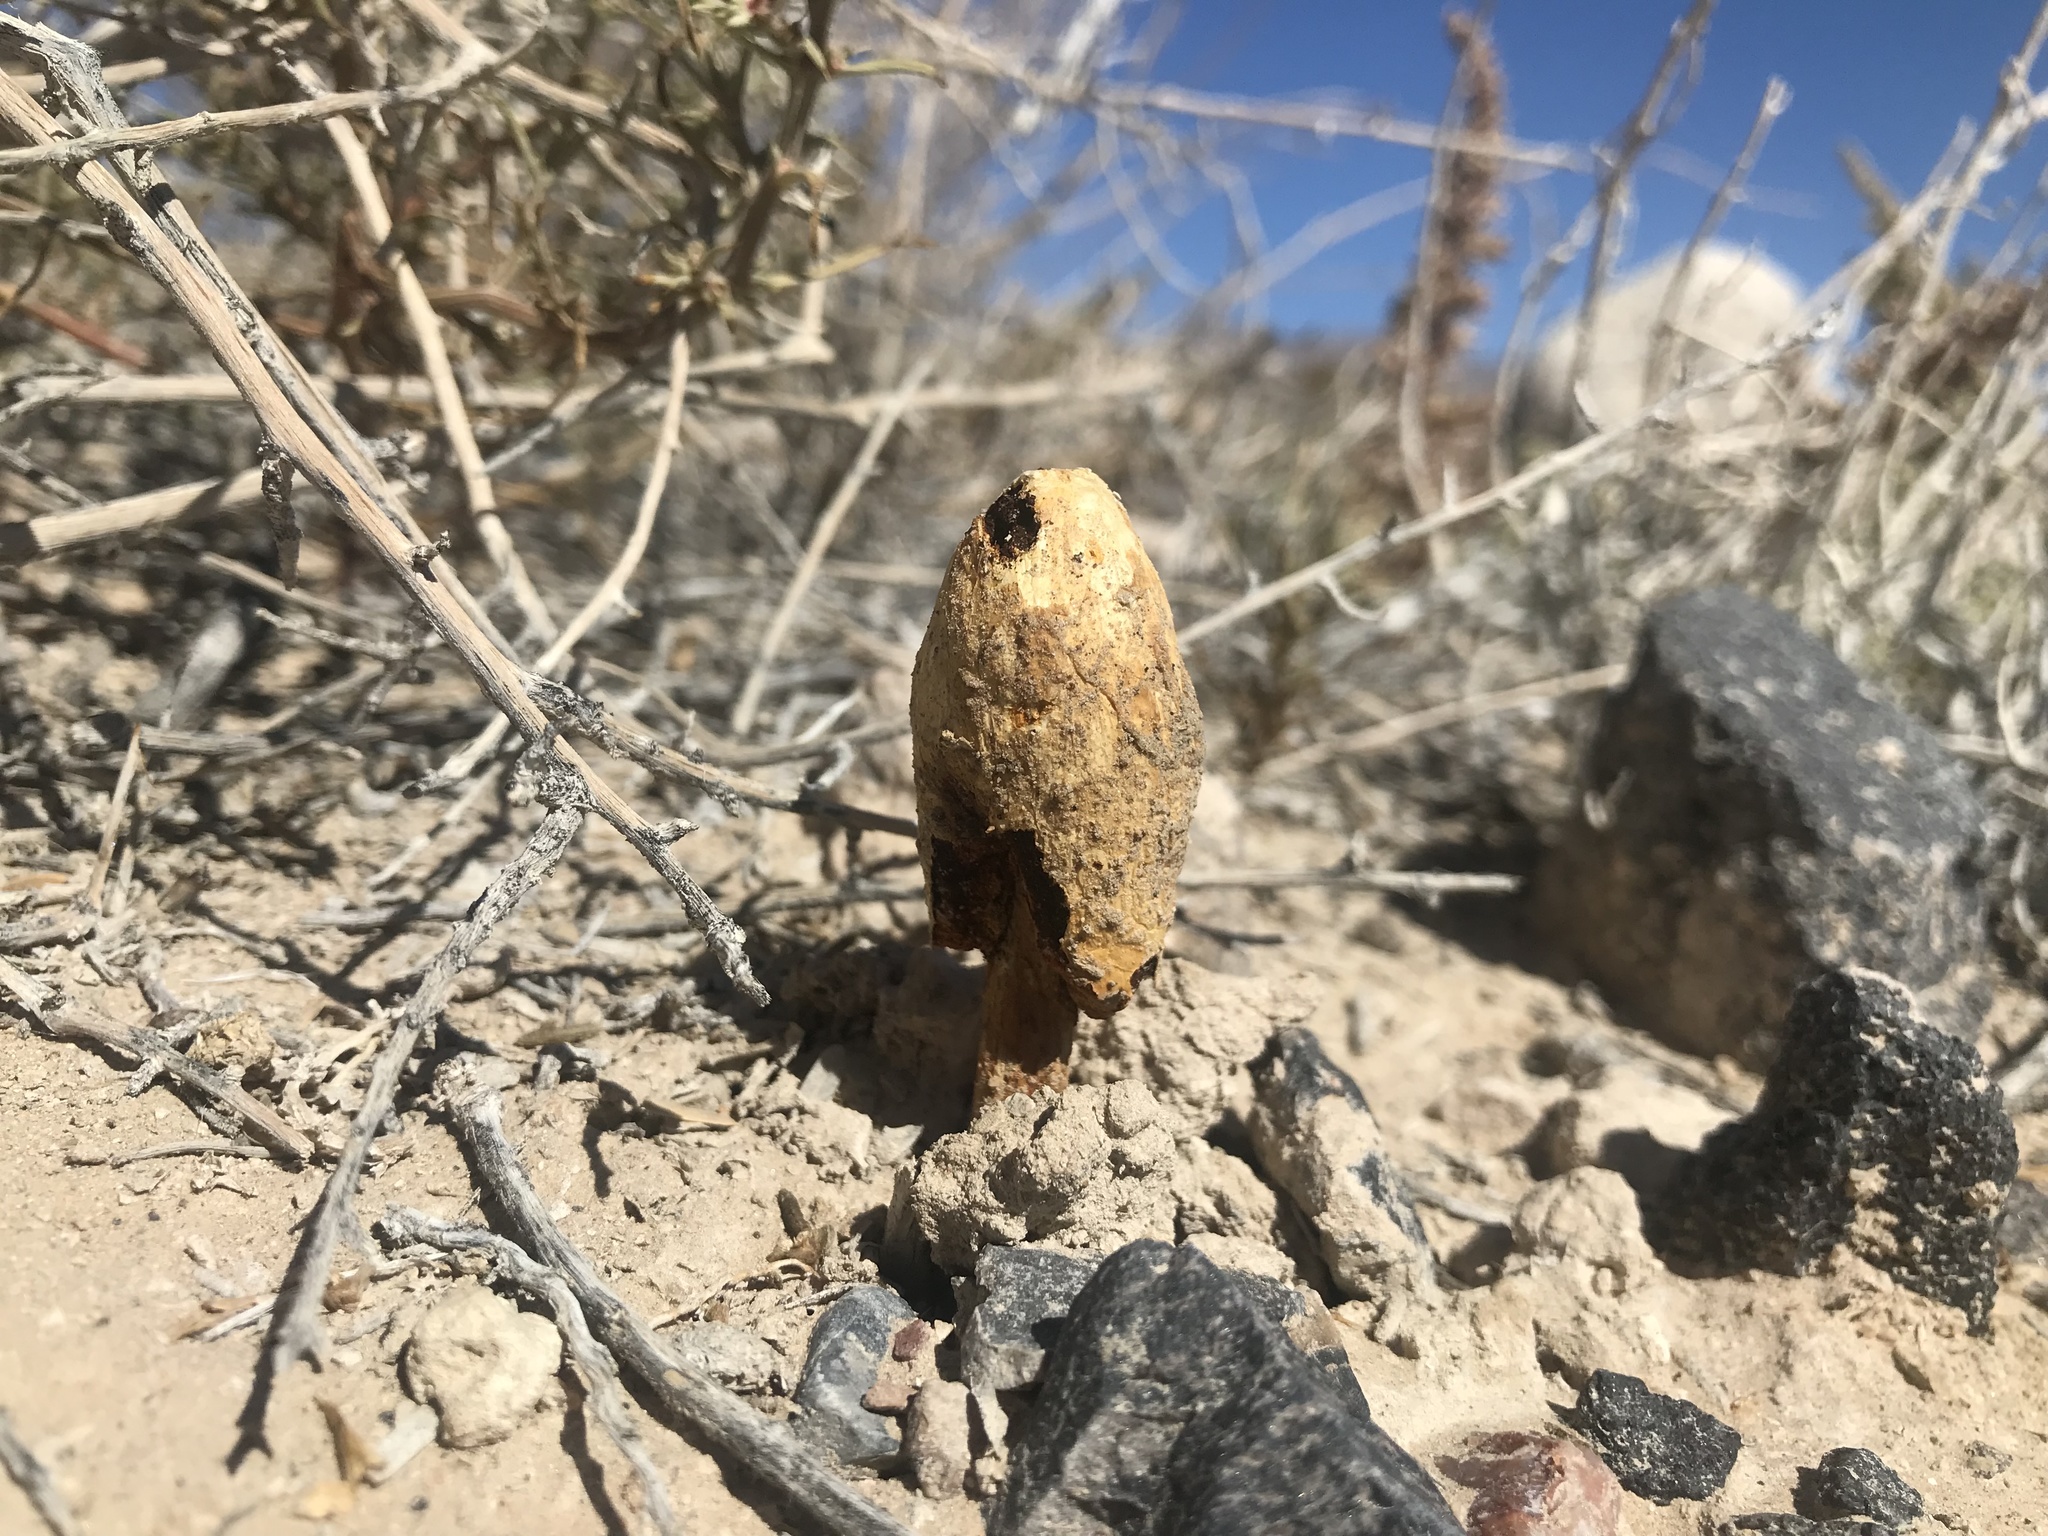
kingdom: Fungi
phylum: Basidiomycota
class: Agaricomycetes
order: Agaricales
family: Agaricaceae
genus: Podaxis
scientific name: Podaxis pistillaris
